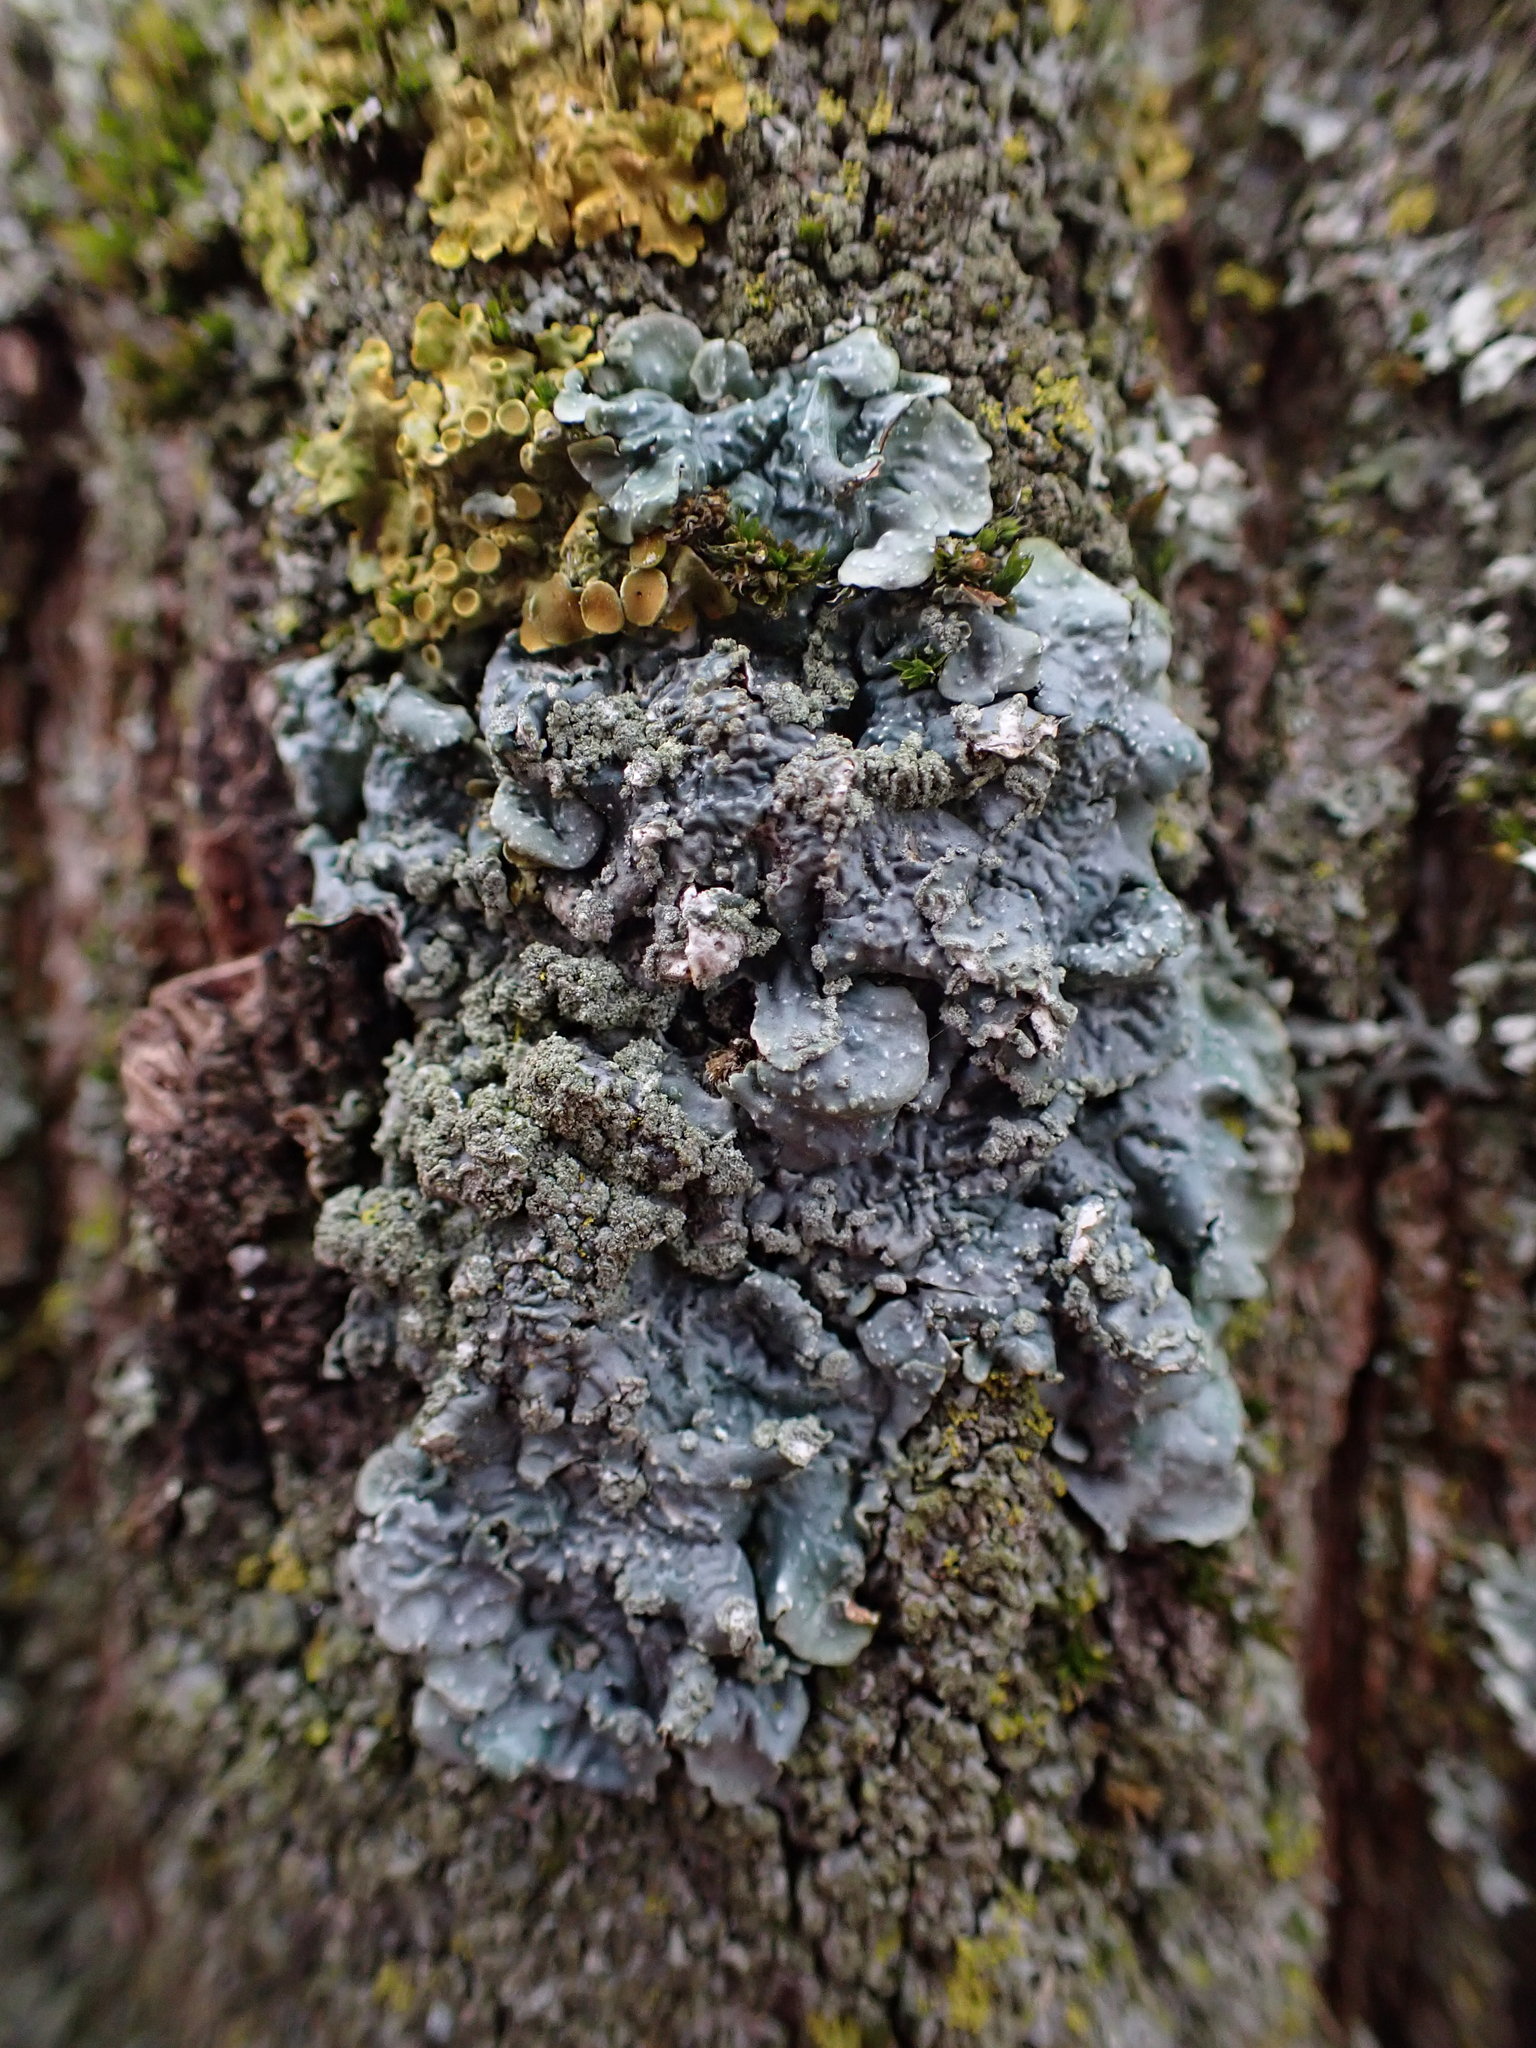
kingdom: Fungi
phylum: Ascomycota
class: Lecanoromycetes
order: Lecanorales
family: Parmeliaceae
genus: Punctelia
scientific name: Punctelia
